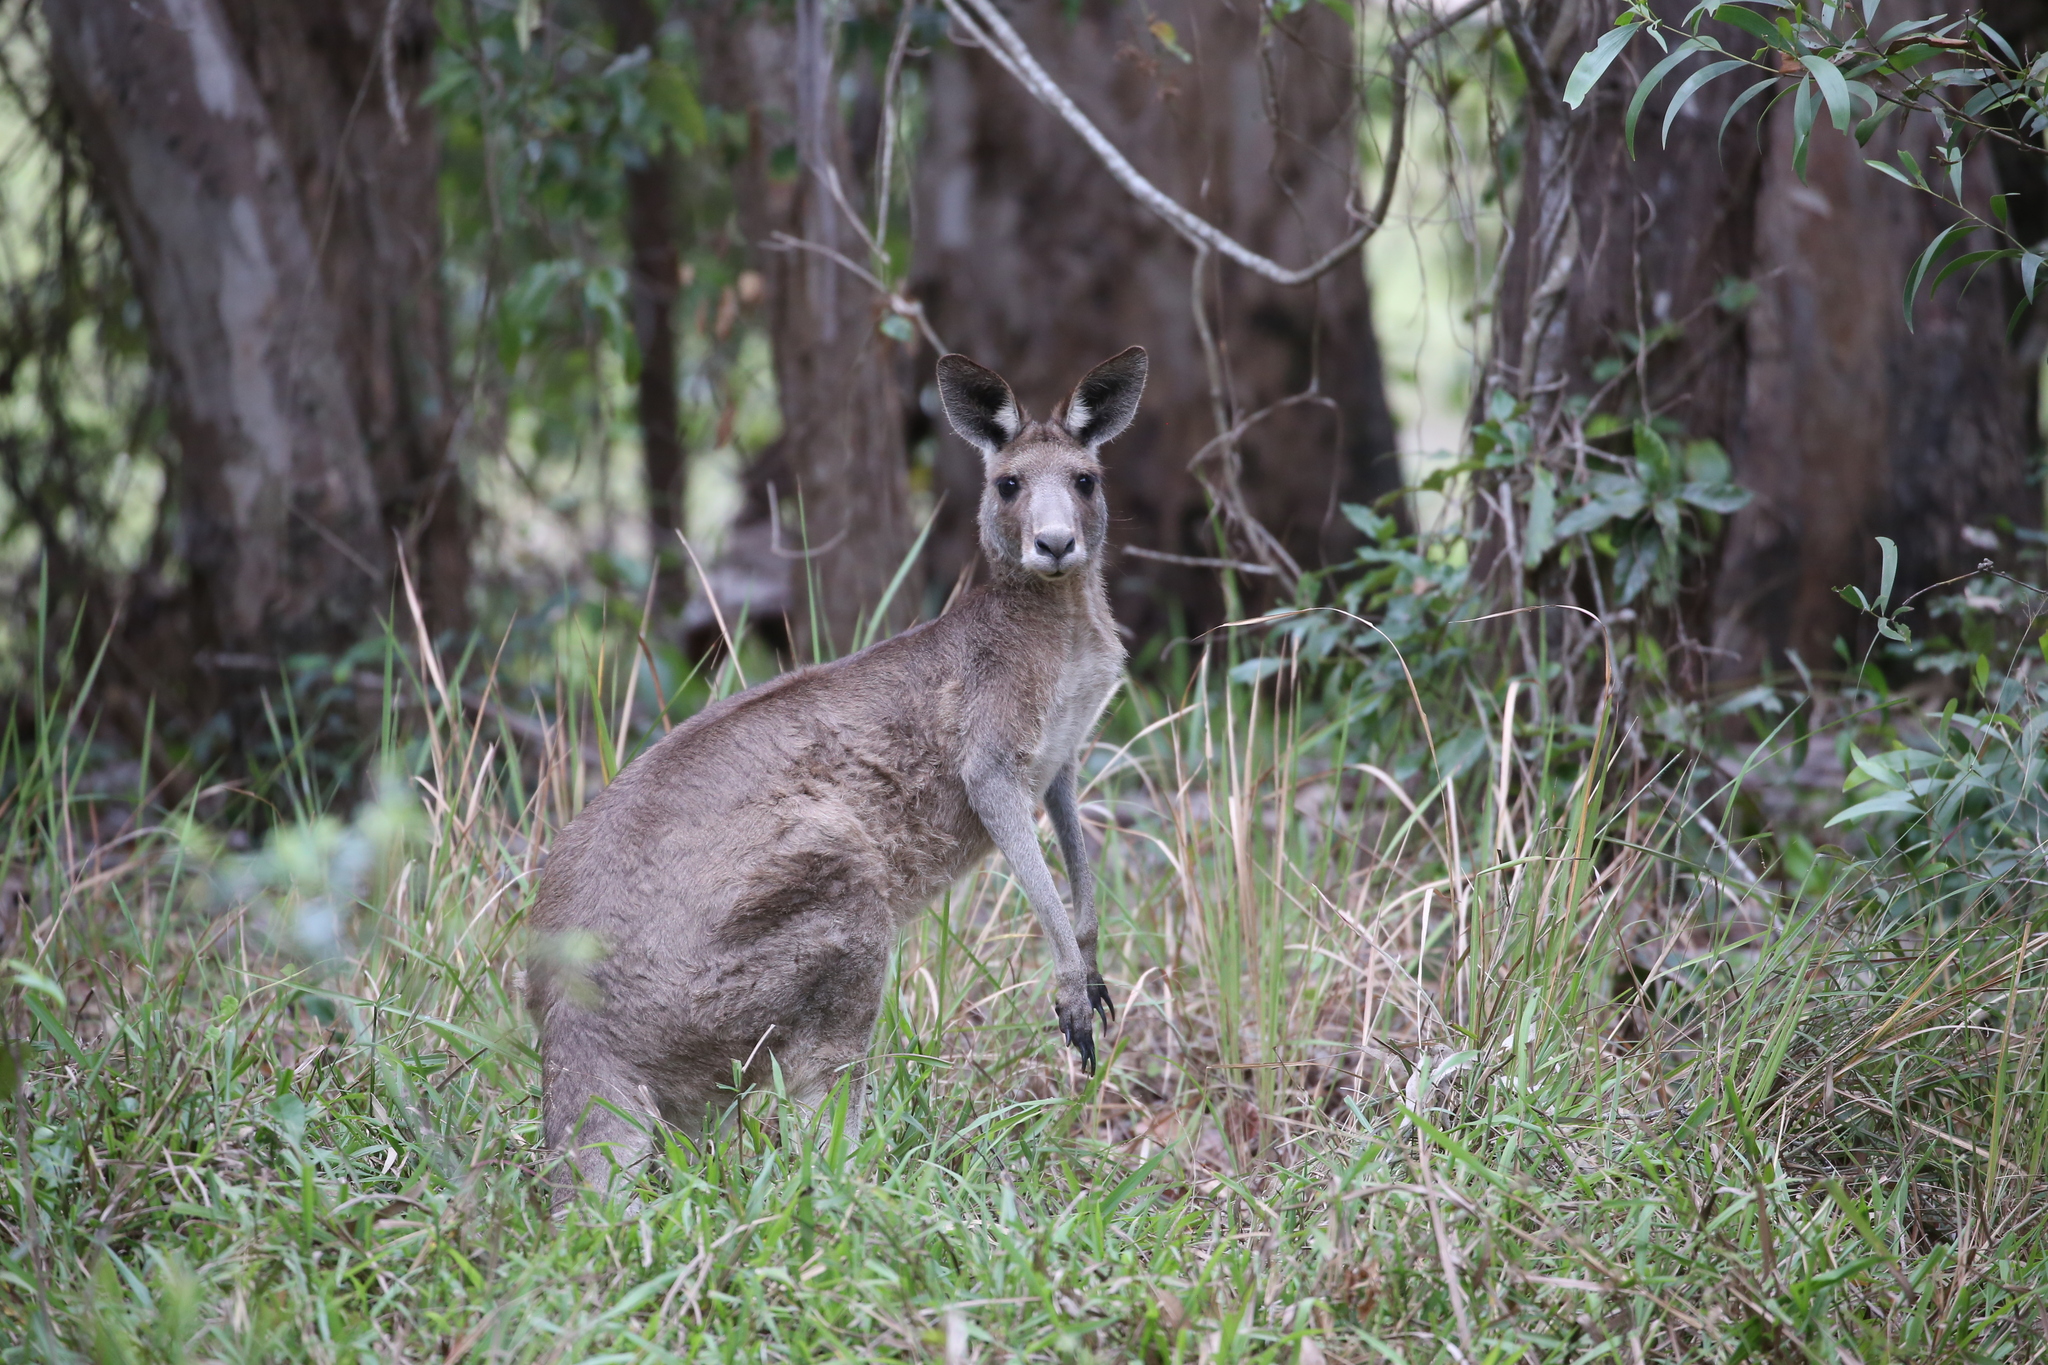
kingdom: Animalia
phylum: Chordata
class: Mammalia
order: Diprotodontia
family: Macropodidae
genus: Macropus
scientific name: Macropus giganteus
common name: Eastern grey kangaroo
